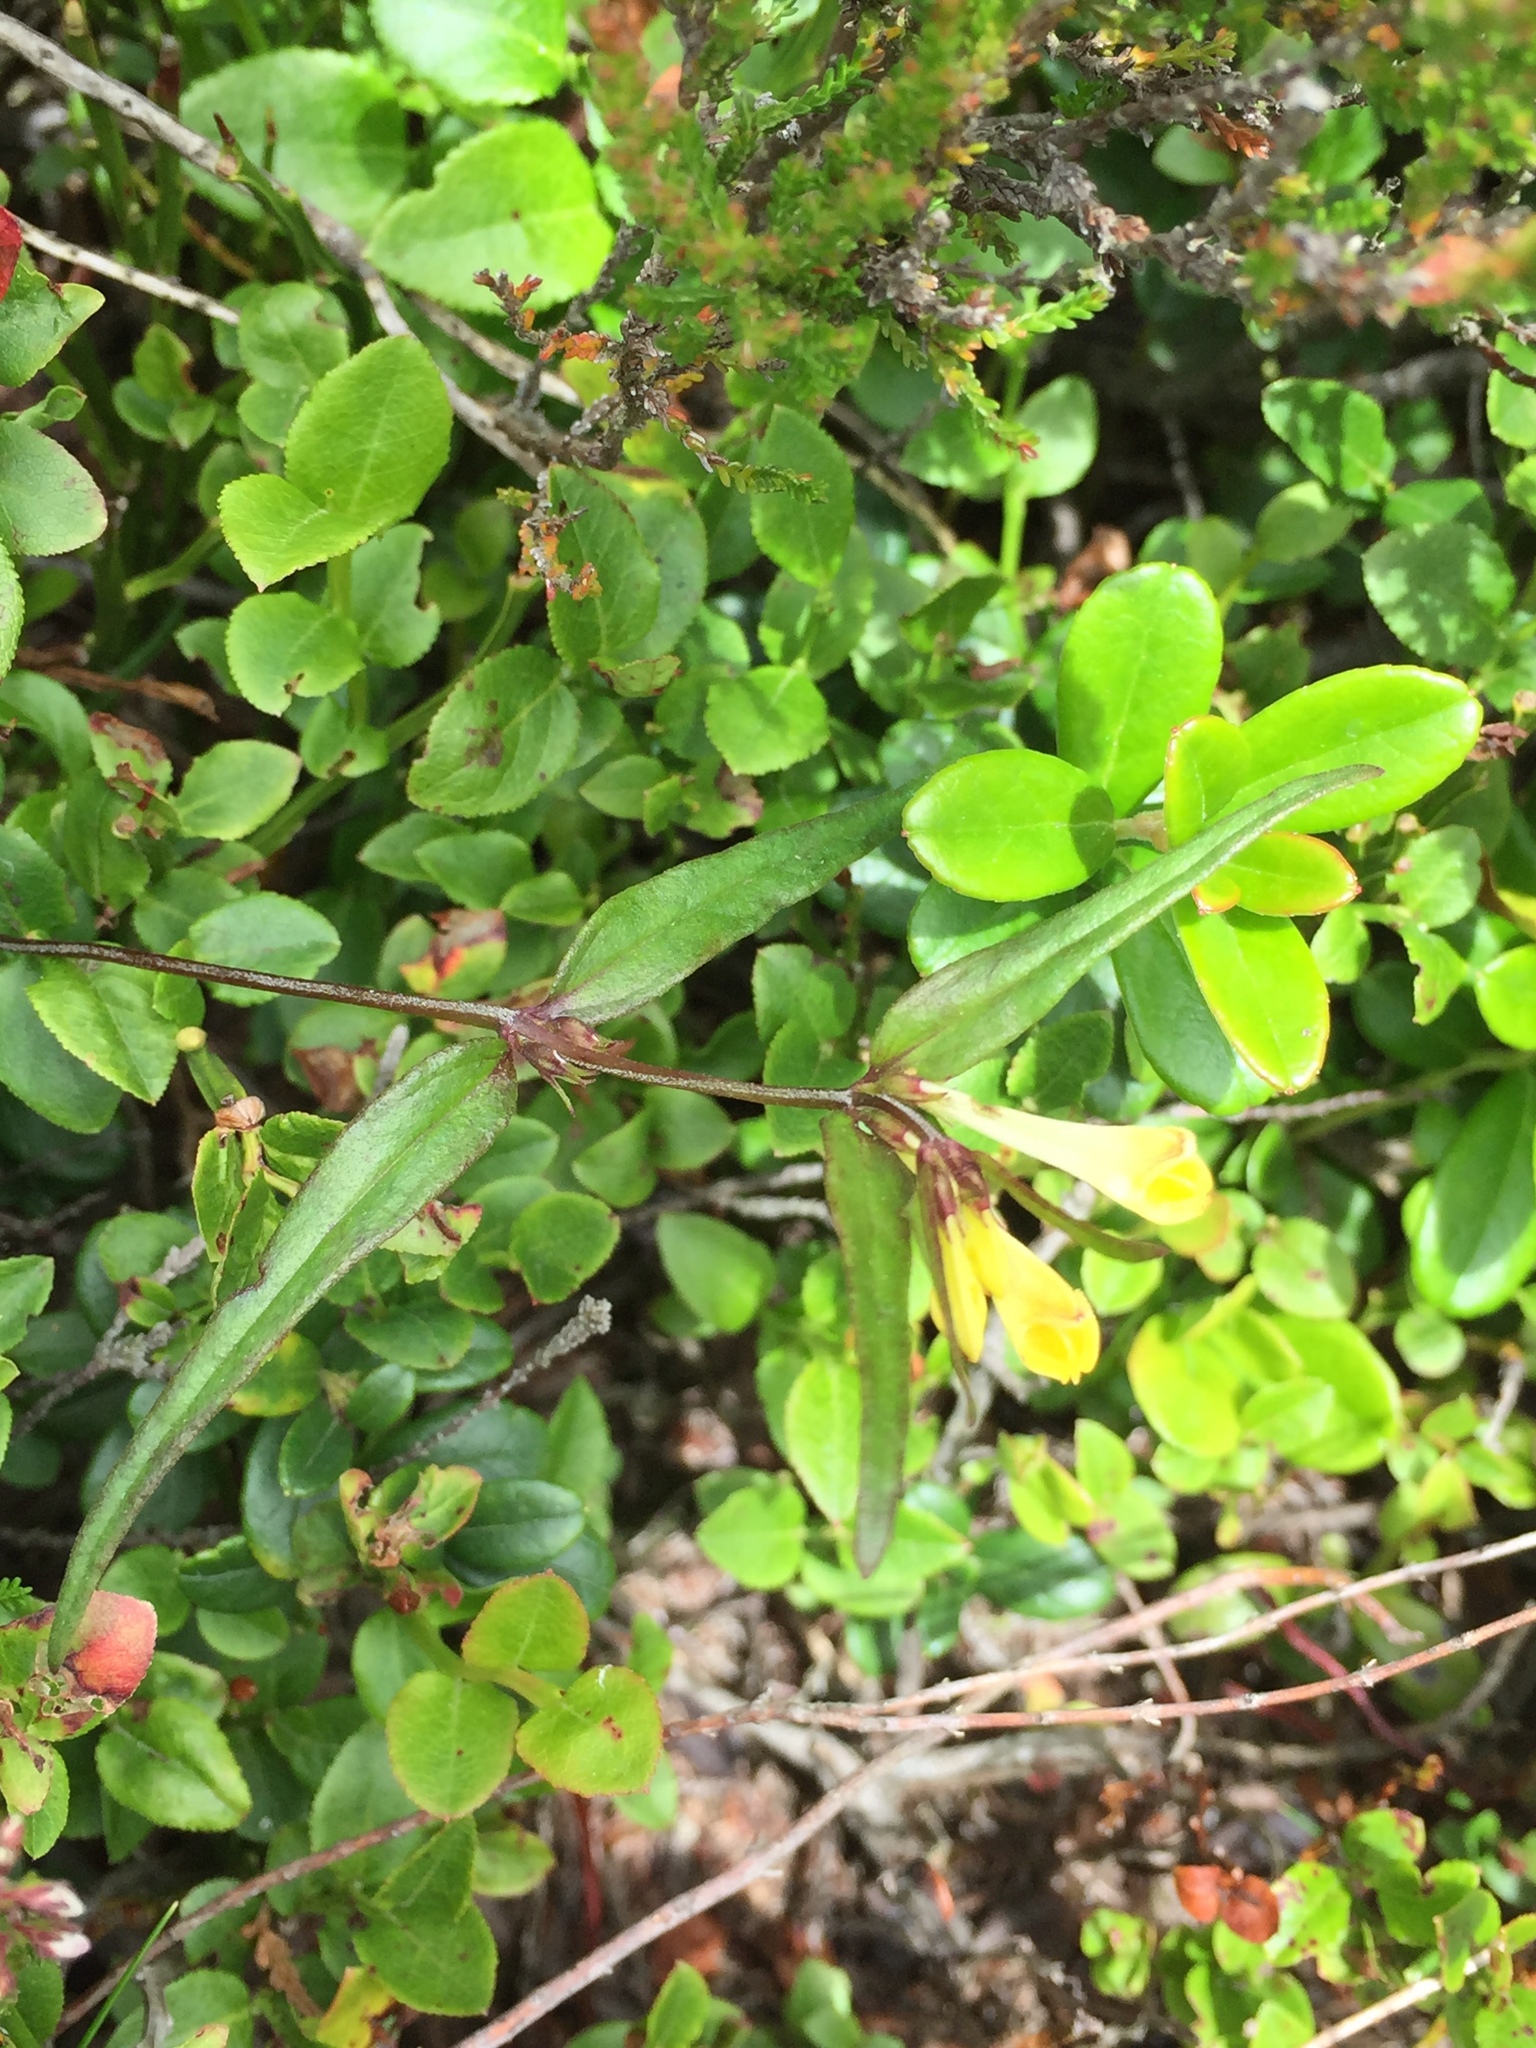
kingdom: Plantae
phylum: Tracheophyta
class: Magnoliopsida
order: Lamiales
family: Orobanchaceae
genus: Melampyrum
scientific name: Melampyrum pratense
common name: Common cow-wheat
